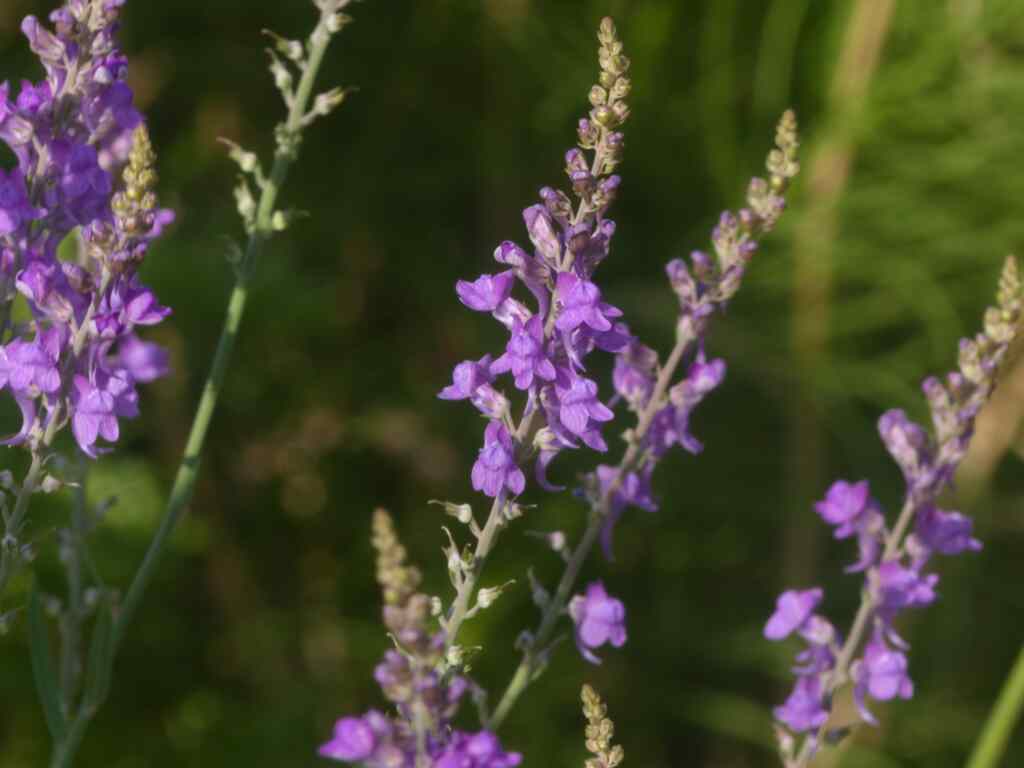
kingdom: Plantae
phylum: Tracheophyta
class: Magnoliopsida
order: Lamiales
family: Plantaginaceae
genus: Linaria
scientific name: Linaria purpurea
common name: Purple toadflax
